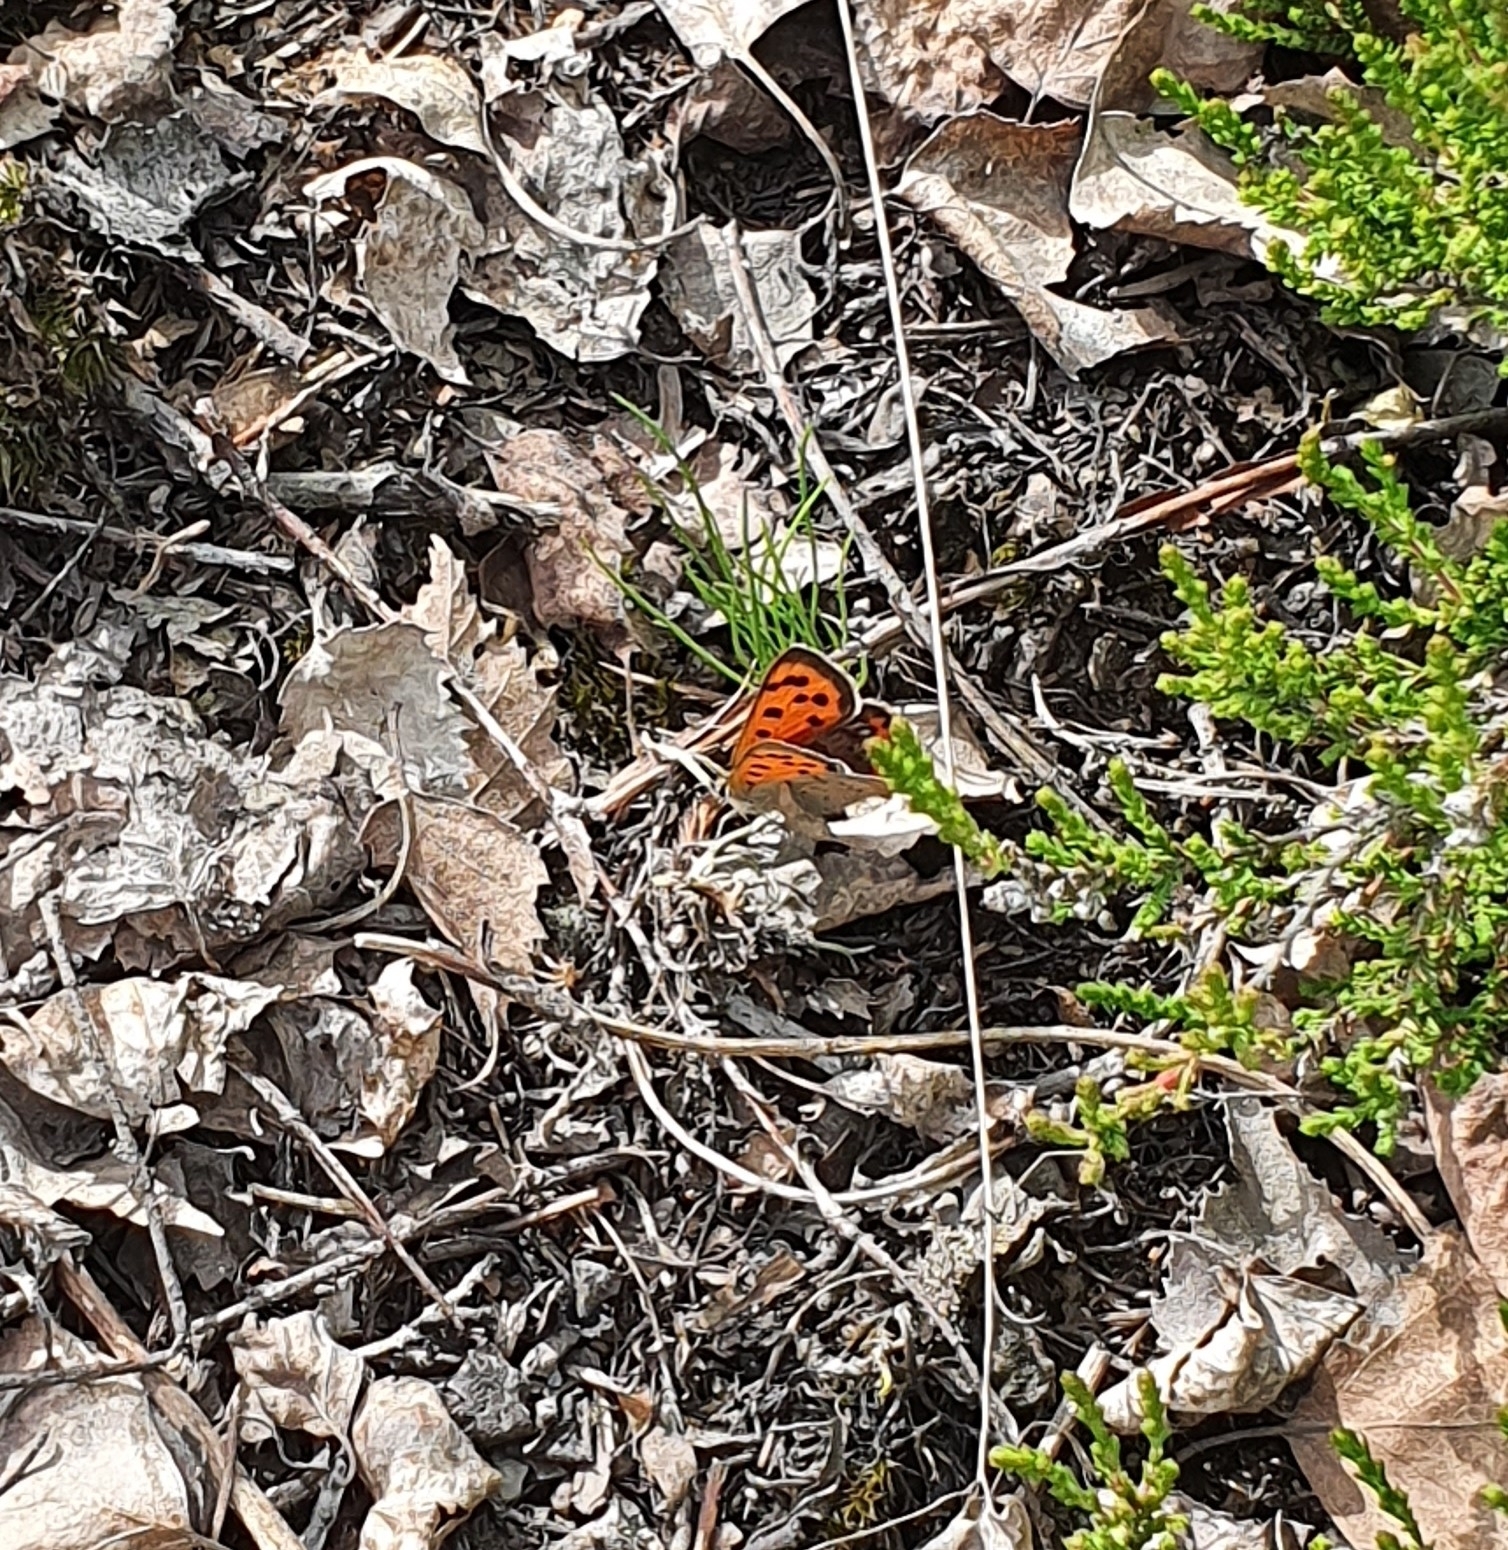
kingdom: Animalia
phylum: Arthropoda
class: Insecta
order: Lepidoptera
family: Lycaenidae
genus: Lycaena
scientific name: Lycaena phlaeas
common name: Small copper
